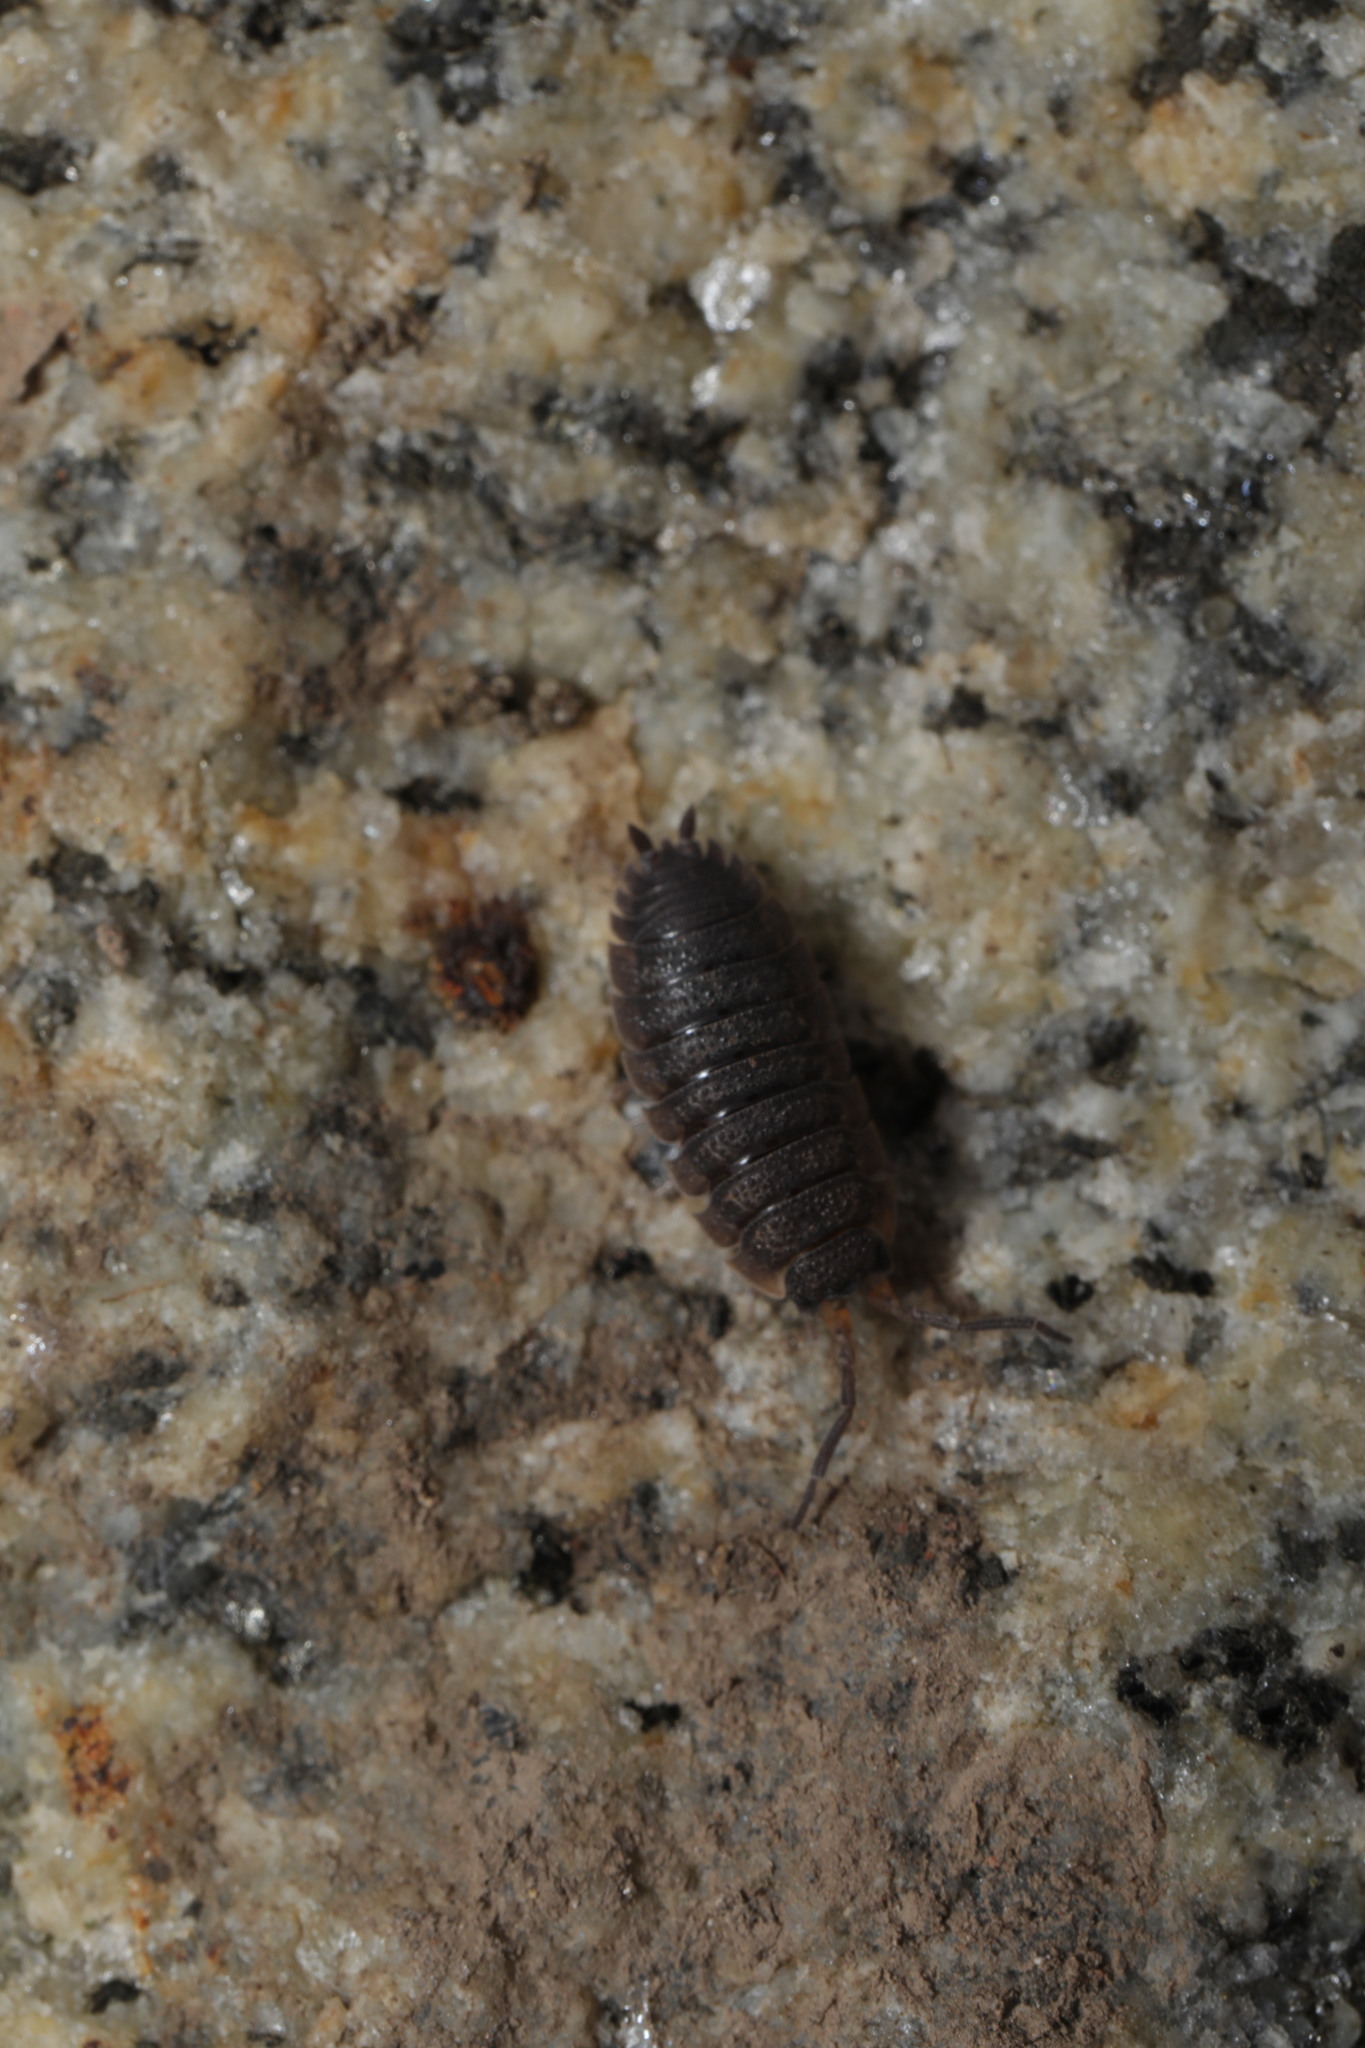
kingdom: Animalia
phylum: Arthropoda
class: Malacostraca
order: Isopoda
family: Porcellionidae
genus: Porcellio
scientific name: Porcellio scaber
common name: Common rough woodlouse
